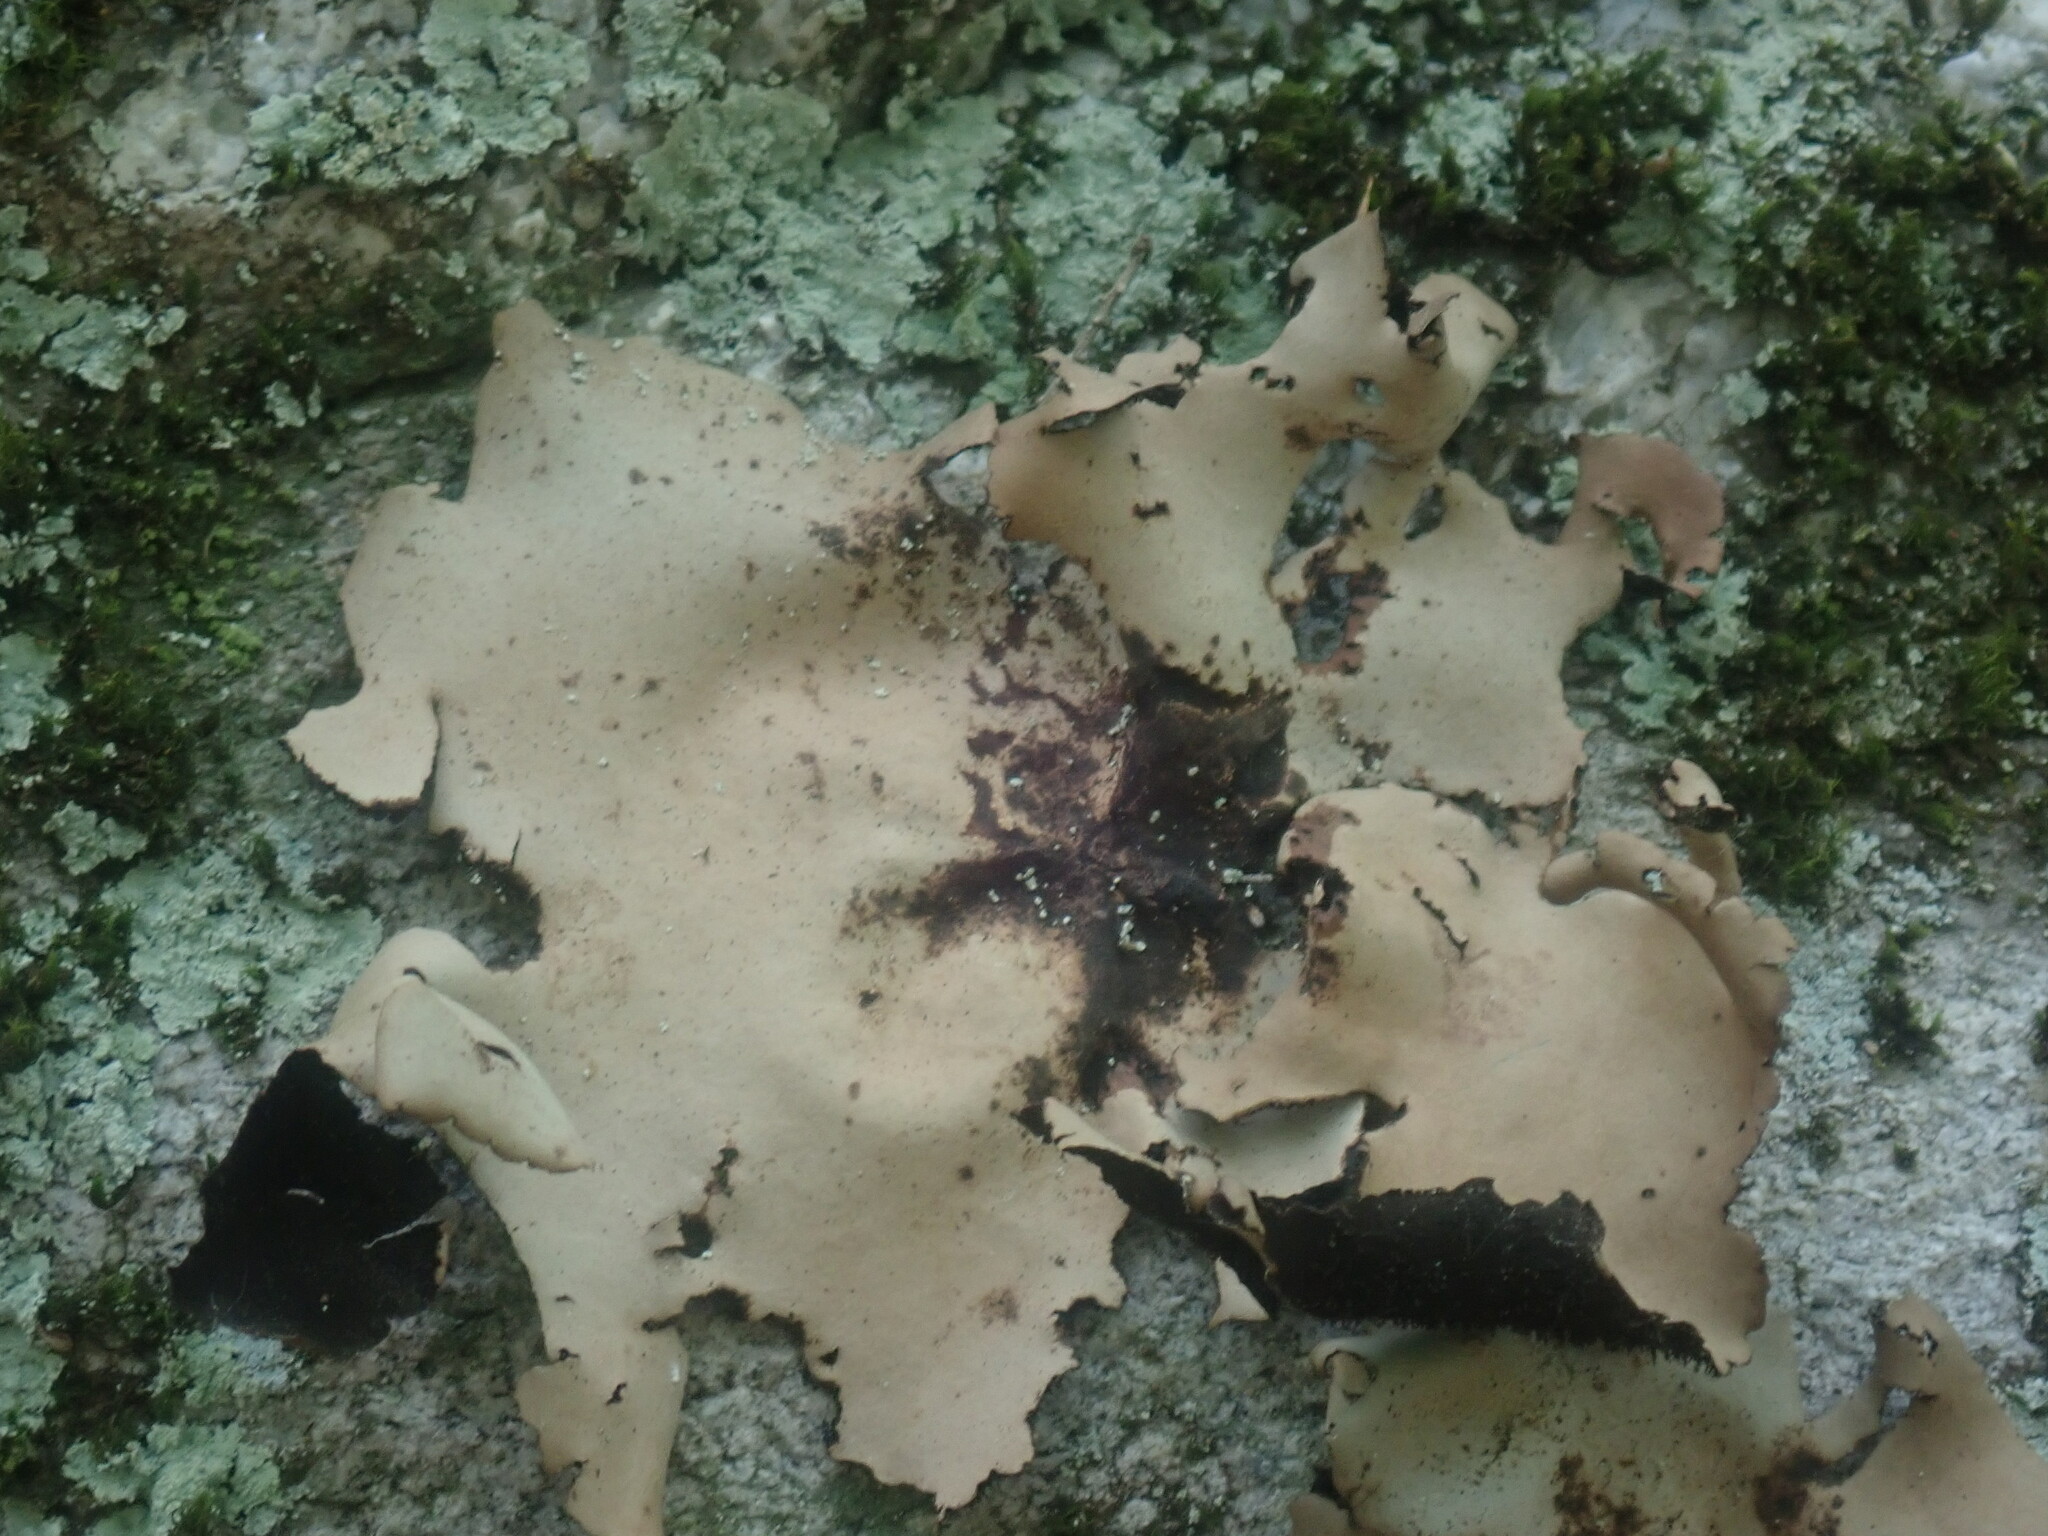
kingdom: Fungi
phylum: Ascomycota
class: Lecanoromycetes
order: Umbilicariales
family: Umbilicariaceae
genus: Umbilicaria
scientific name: Umbilicaria mammulata
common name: Smooth rock tripe
